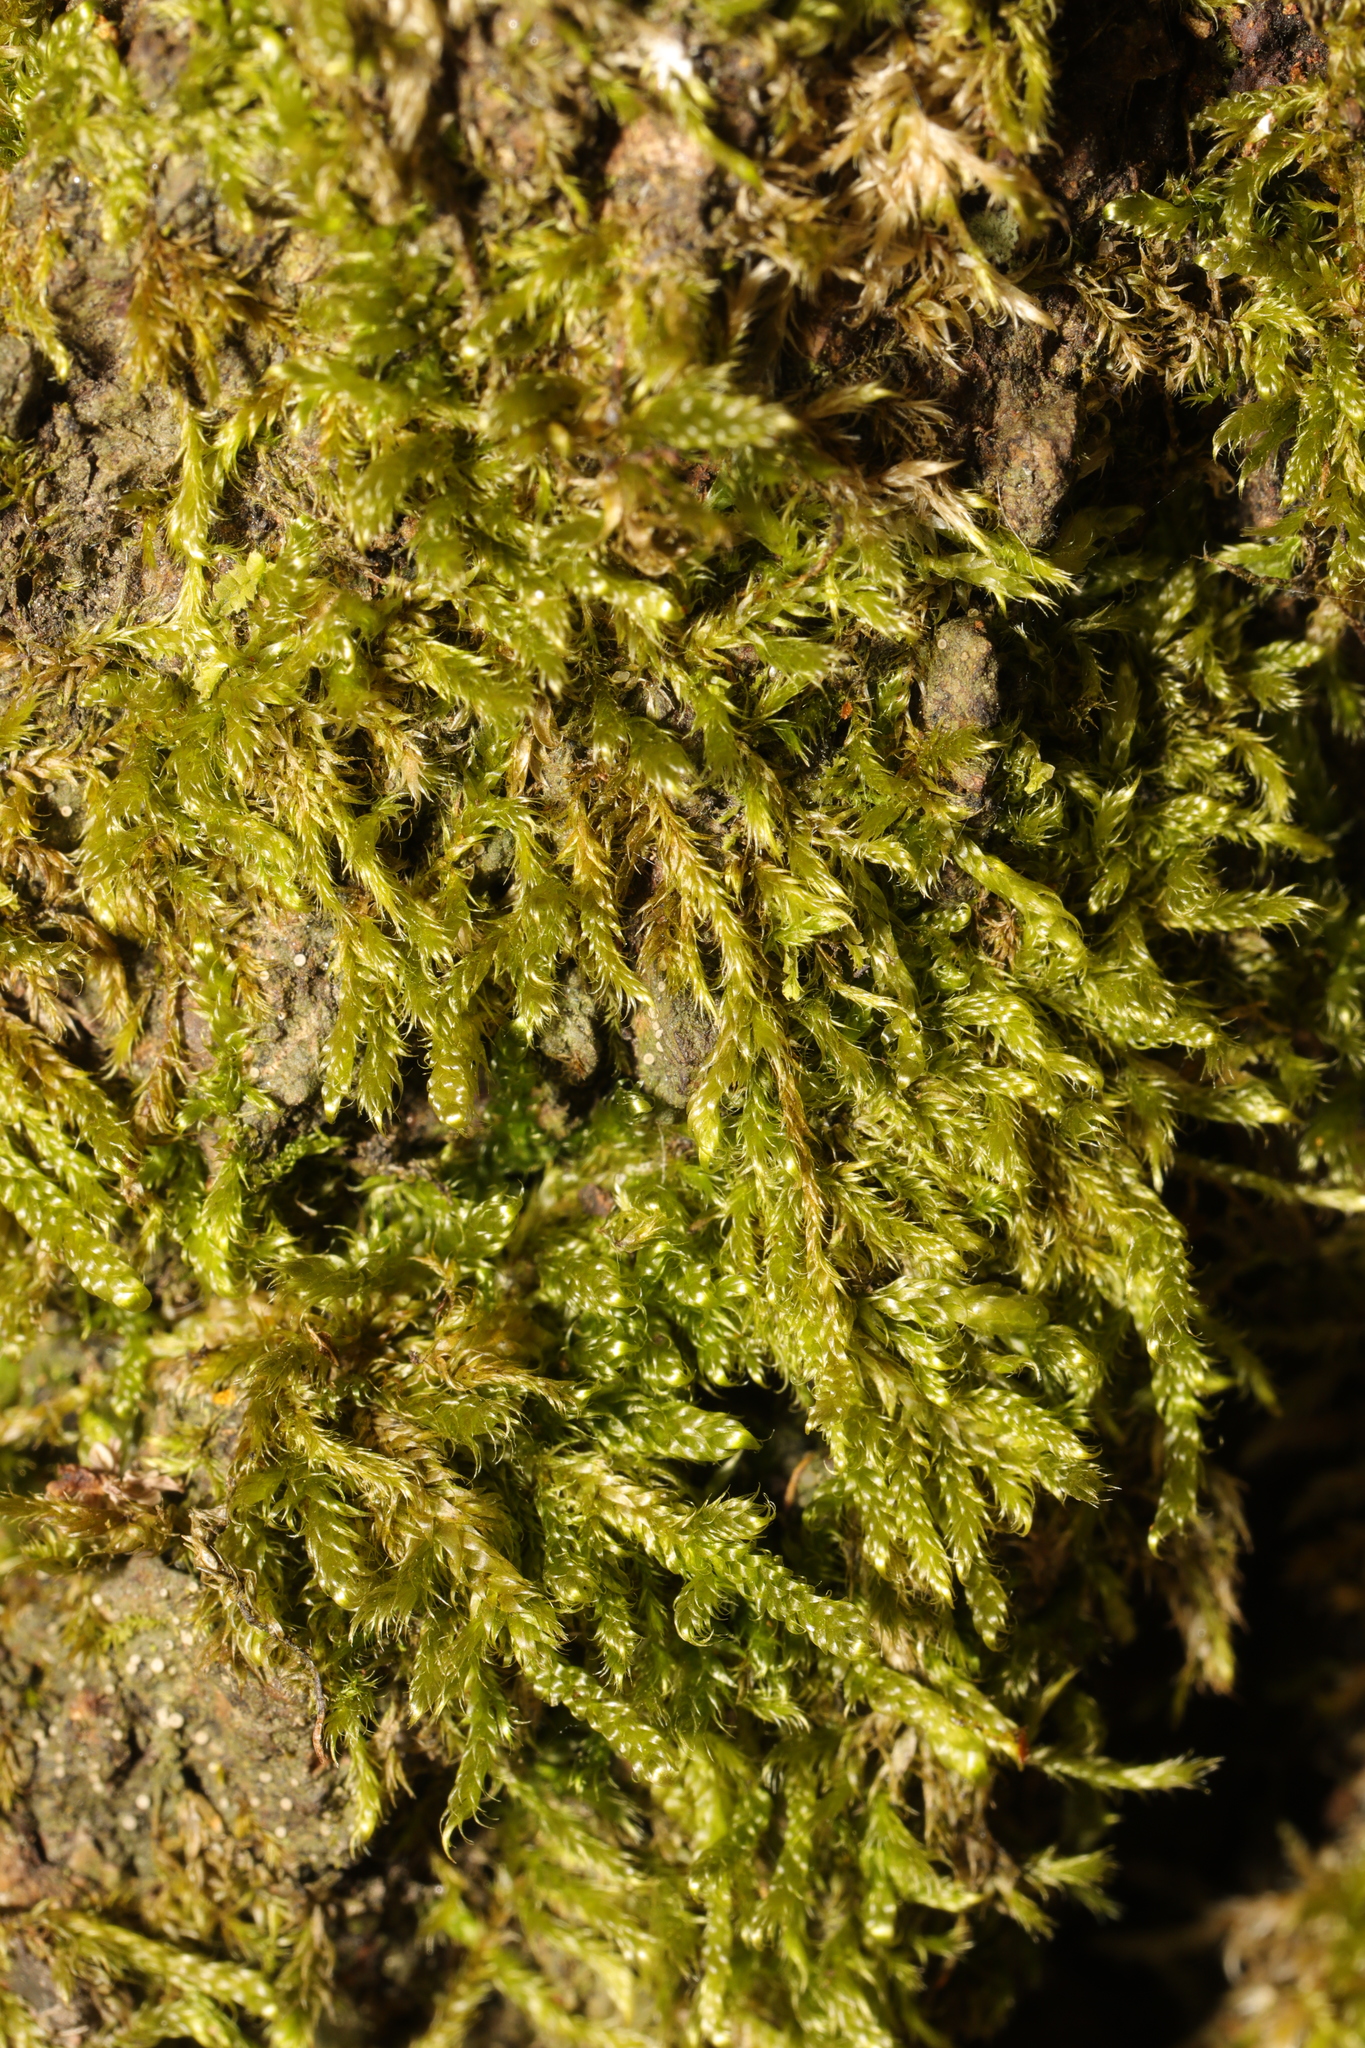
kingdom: Plantae
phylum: Bryophyta
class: Bryopsida
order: Hypnales
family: Hypnaceae
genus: Hypnum
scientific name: Hypnum cupressiforme
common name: Cypress-leaved plait-moss
